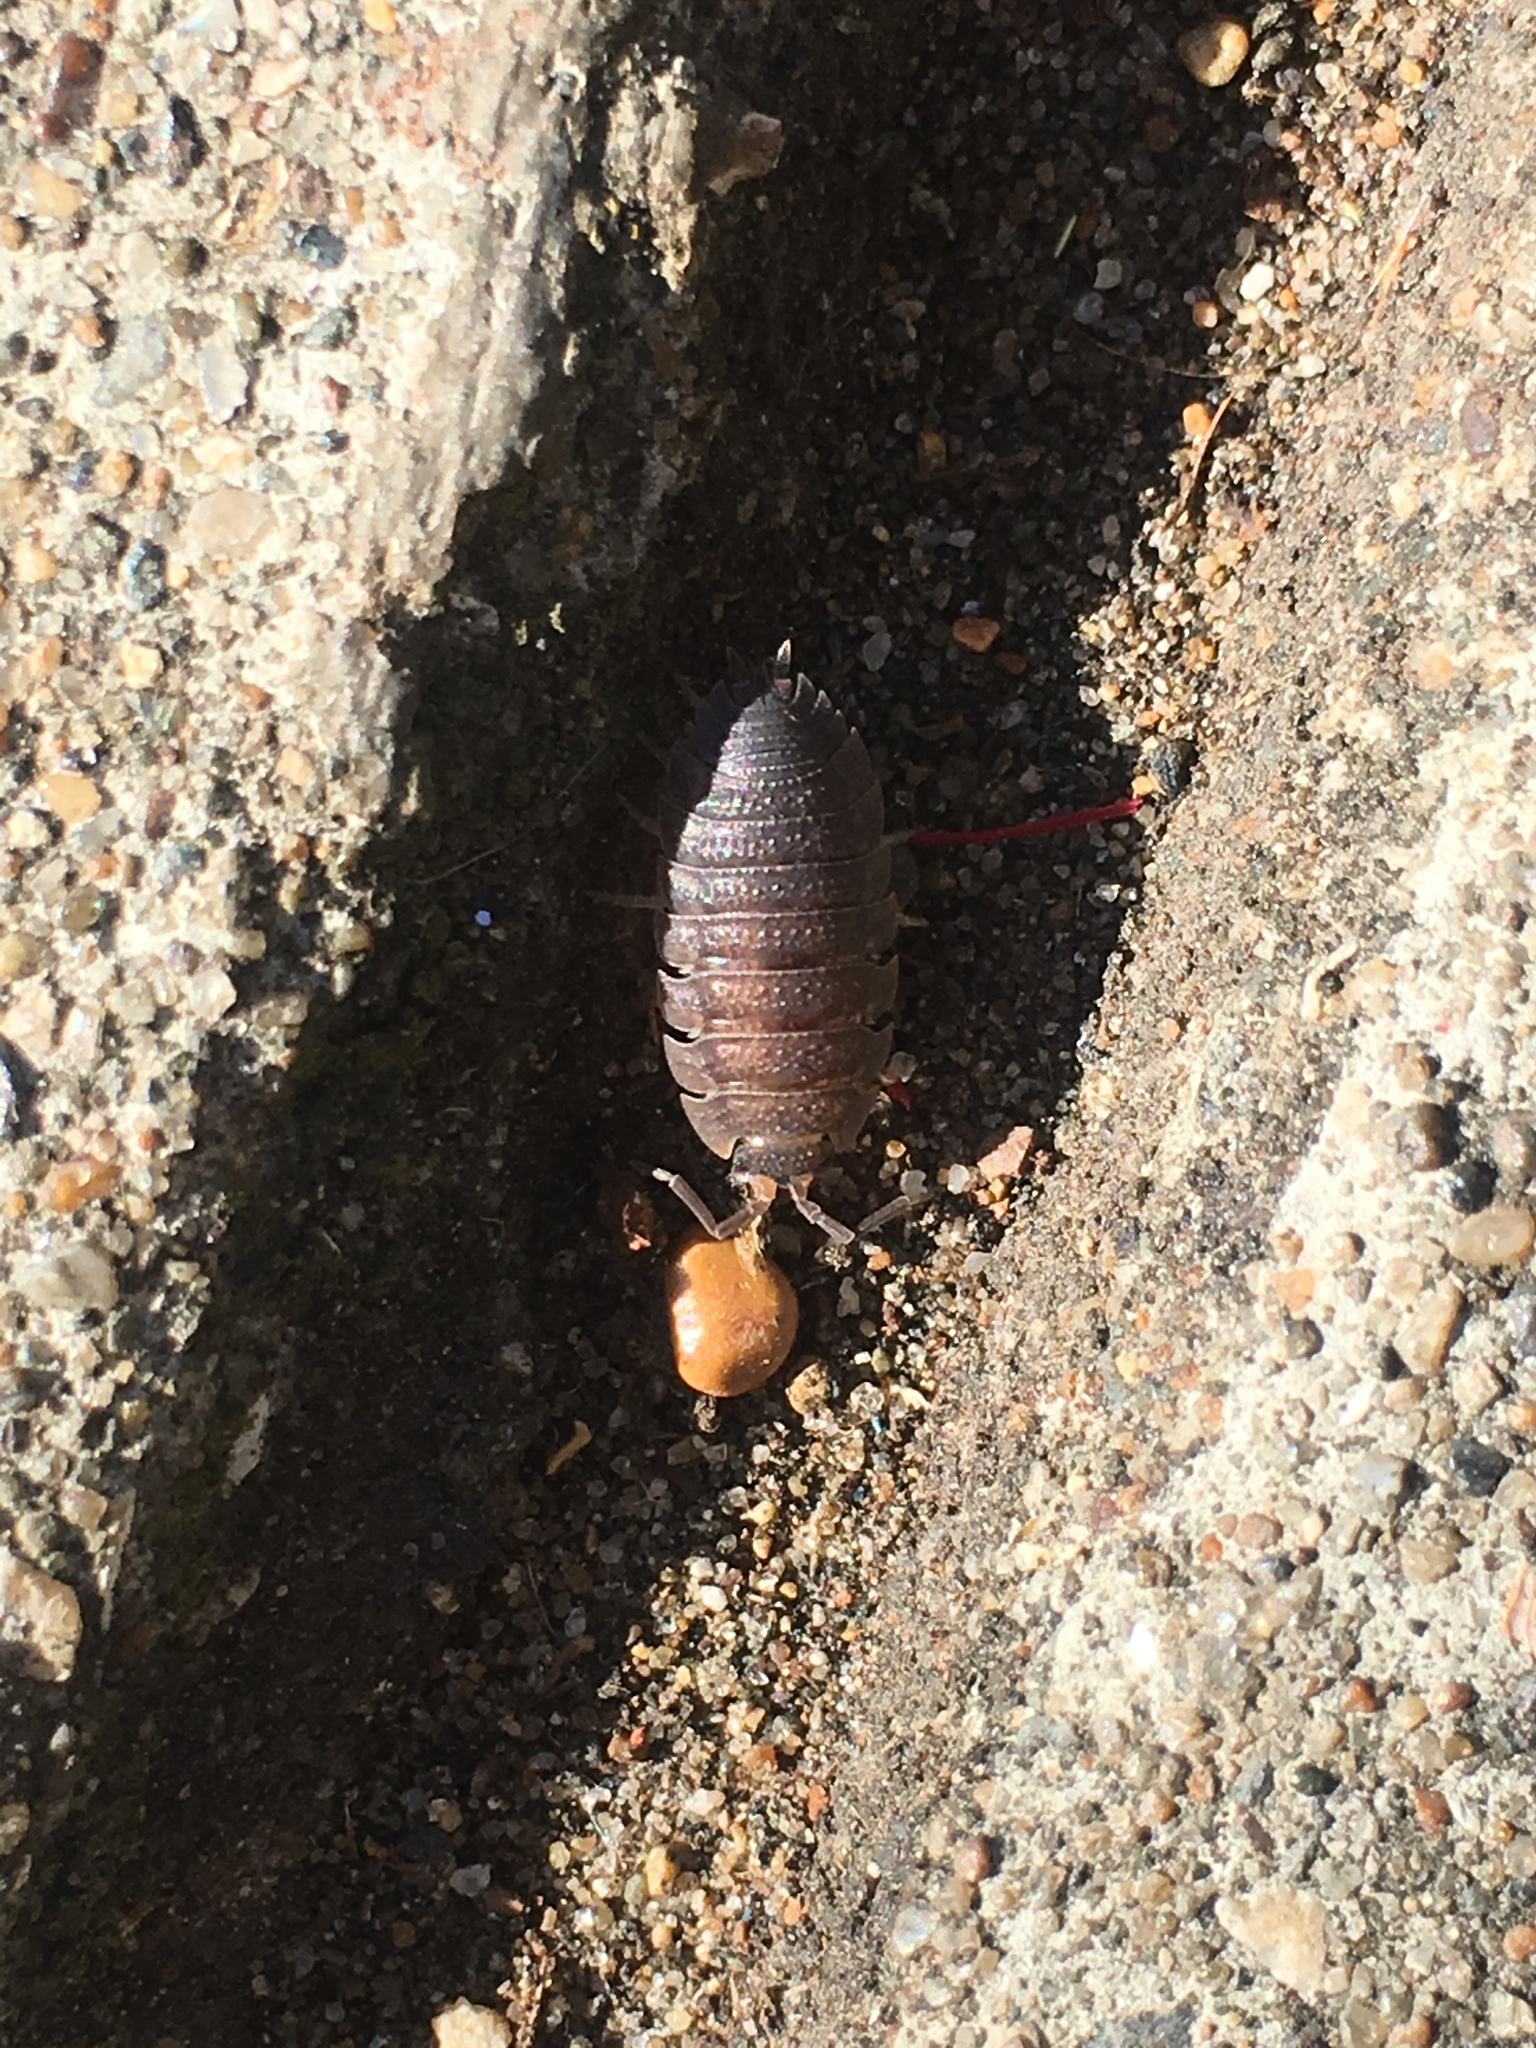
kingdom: Animalia
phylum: Arthropoda
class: Malacostraca
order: Isopoda
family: Porcellionidae
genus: Porcellio
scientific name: Porcellio scaber
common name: Common rough woodlouse
